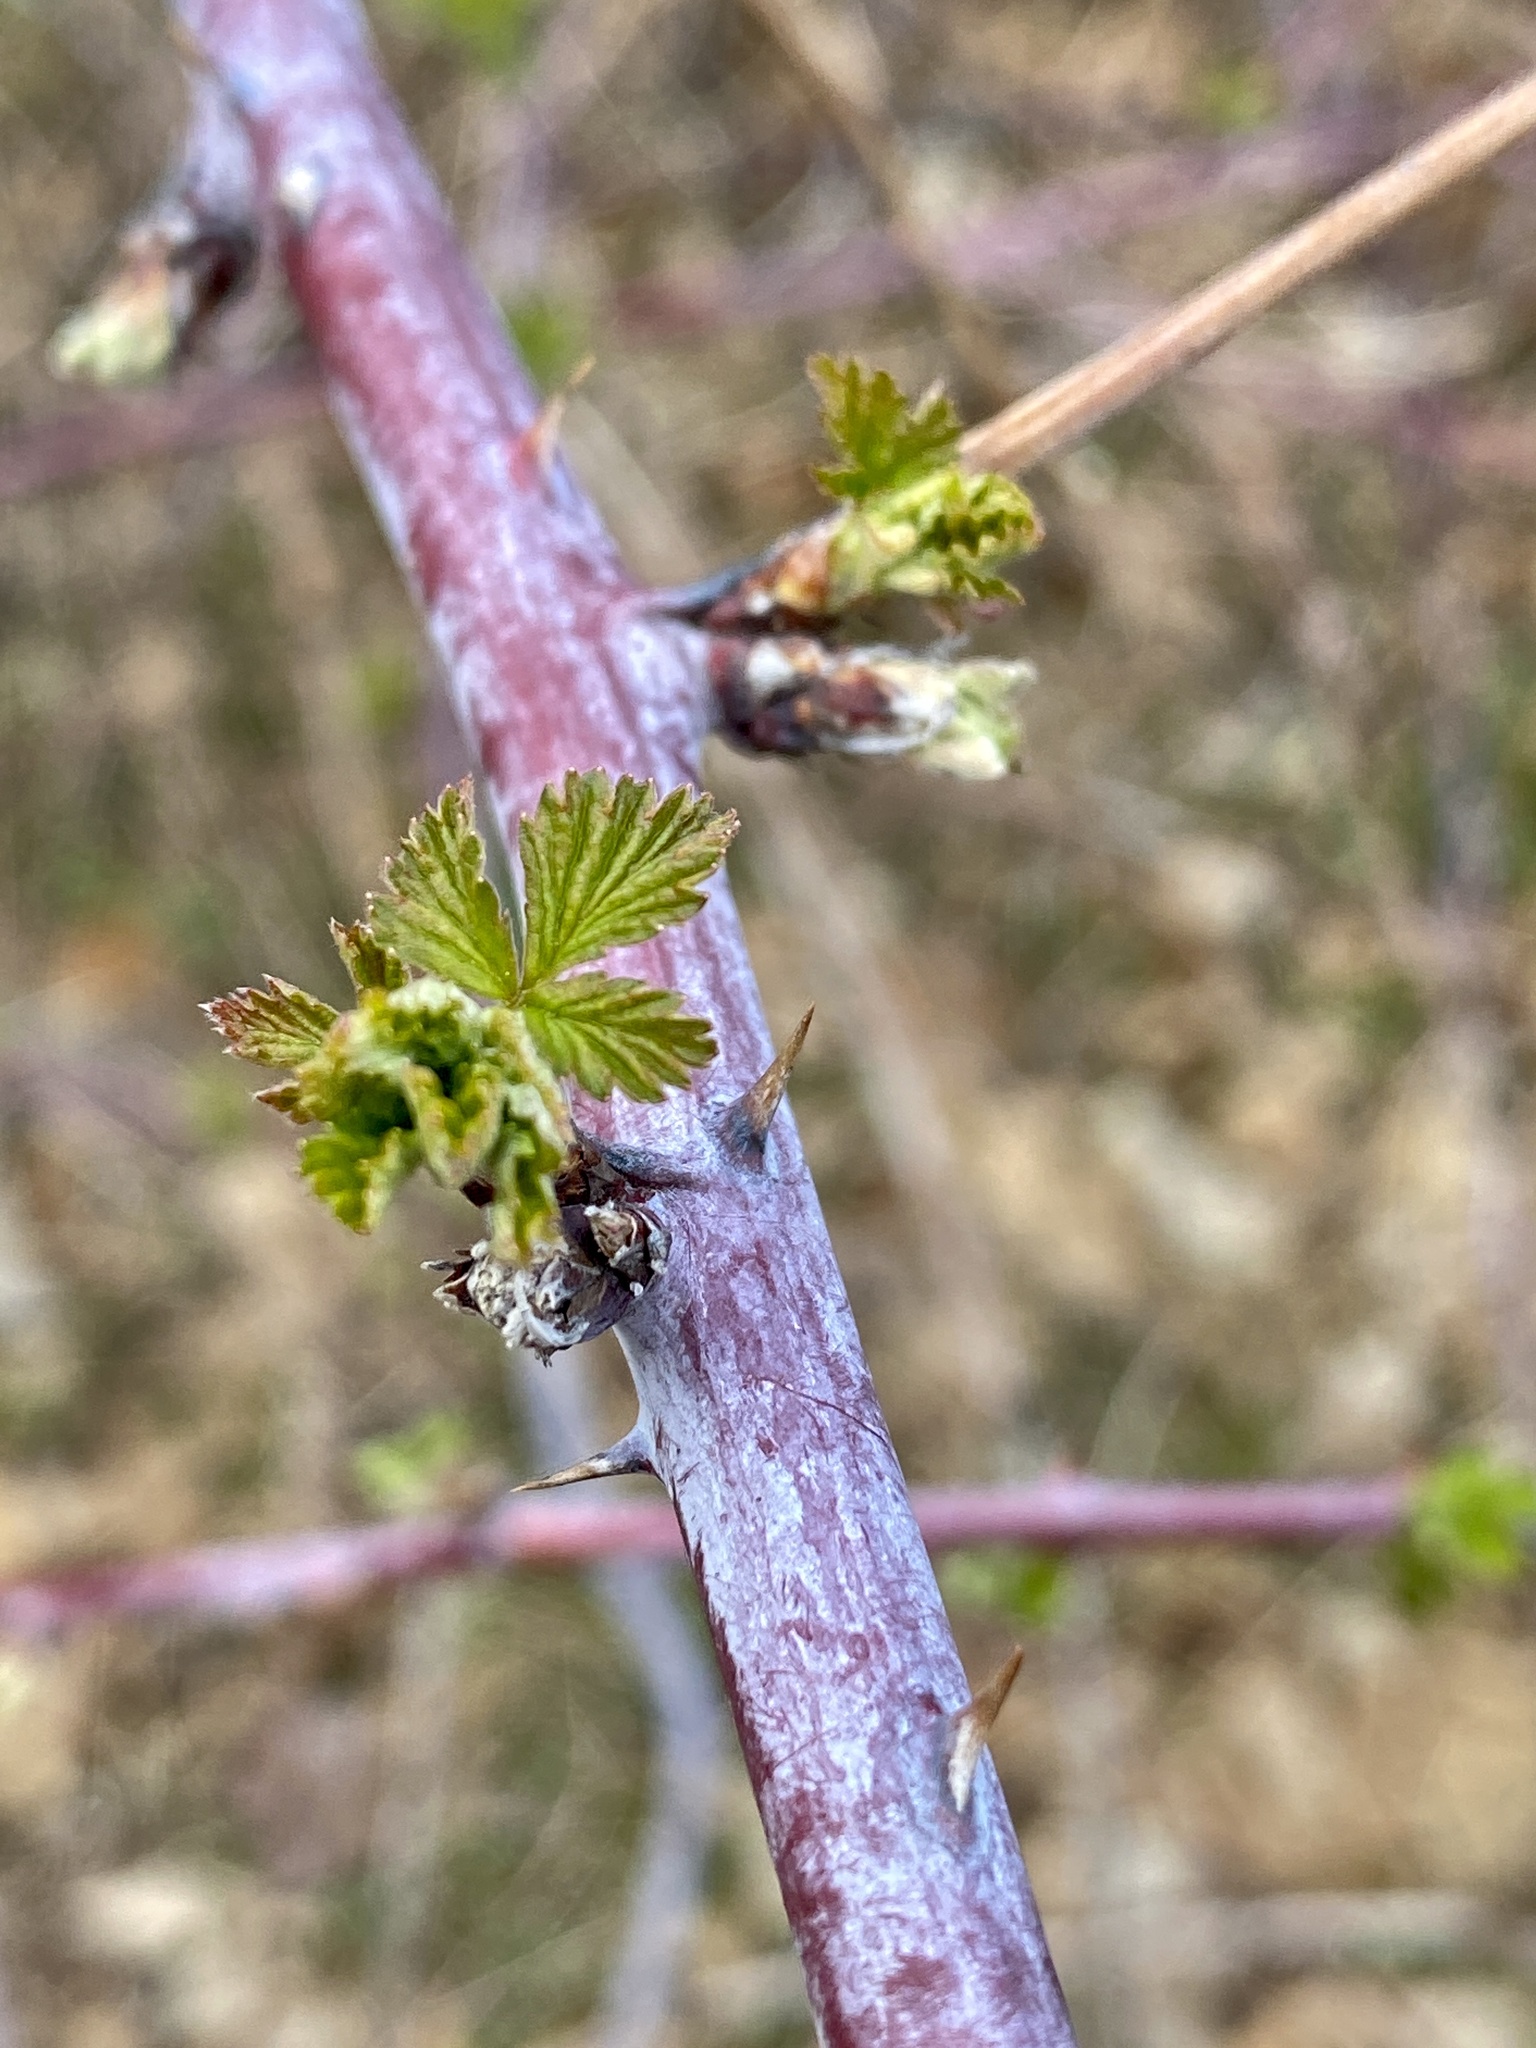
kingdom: Plantae
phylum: Tracheophyta
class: Magnoliopsida
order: Rosales
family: Rosaceae
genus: Rubus
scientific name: Rubus occidentalis
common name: Black raspberry
